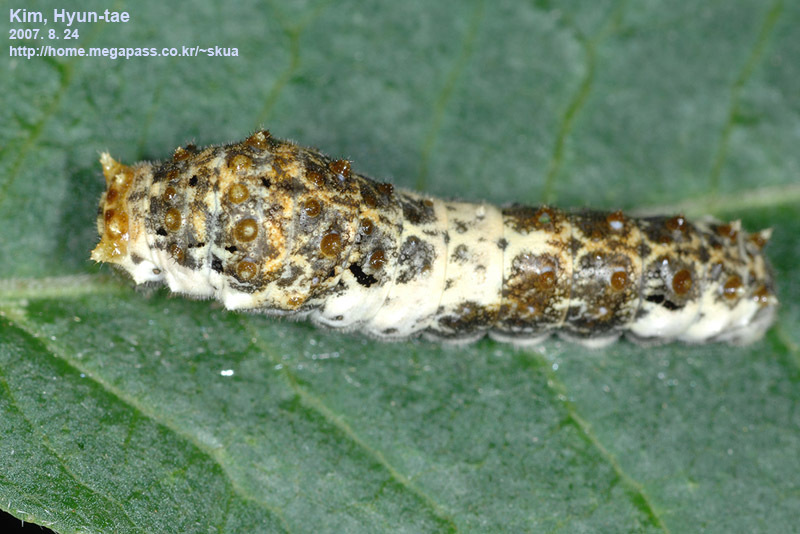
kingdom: Animalia
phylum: Arthropoda
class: Insecta
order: Lepidoptera
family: Papilionidae
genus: Papilio
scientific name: Papilio macilentus
